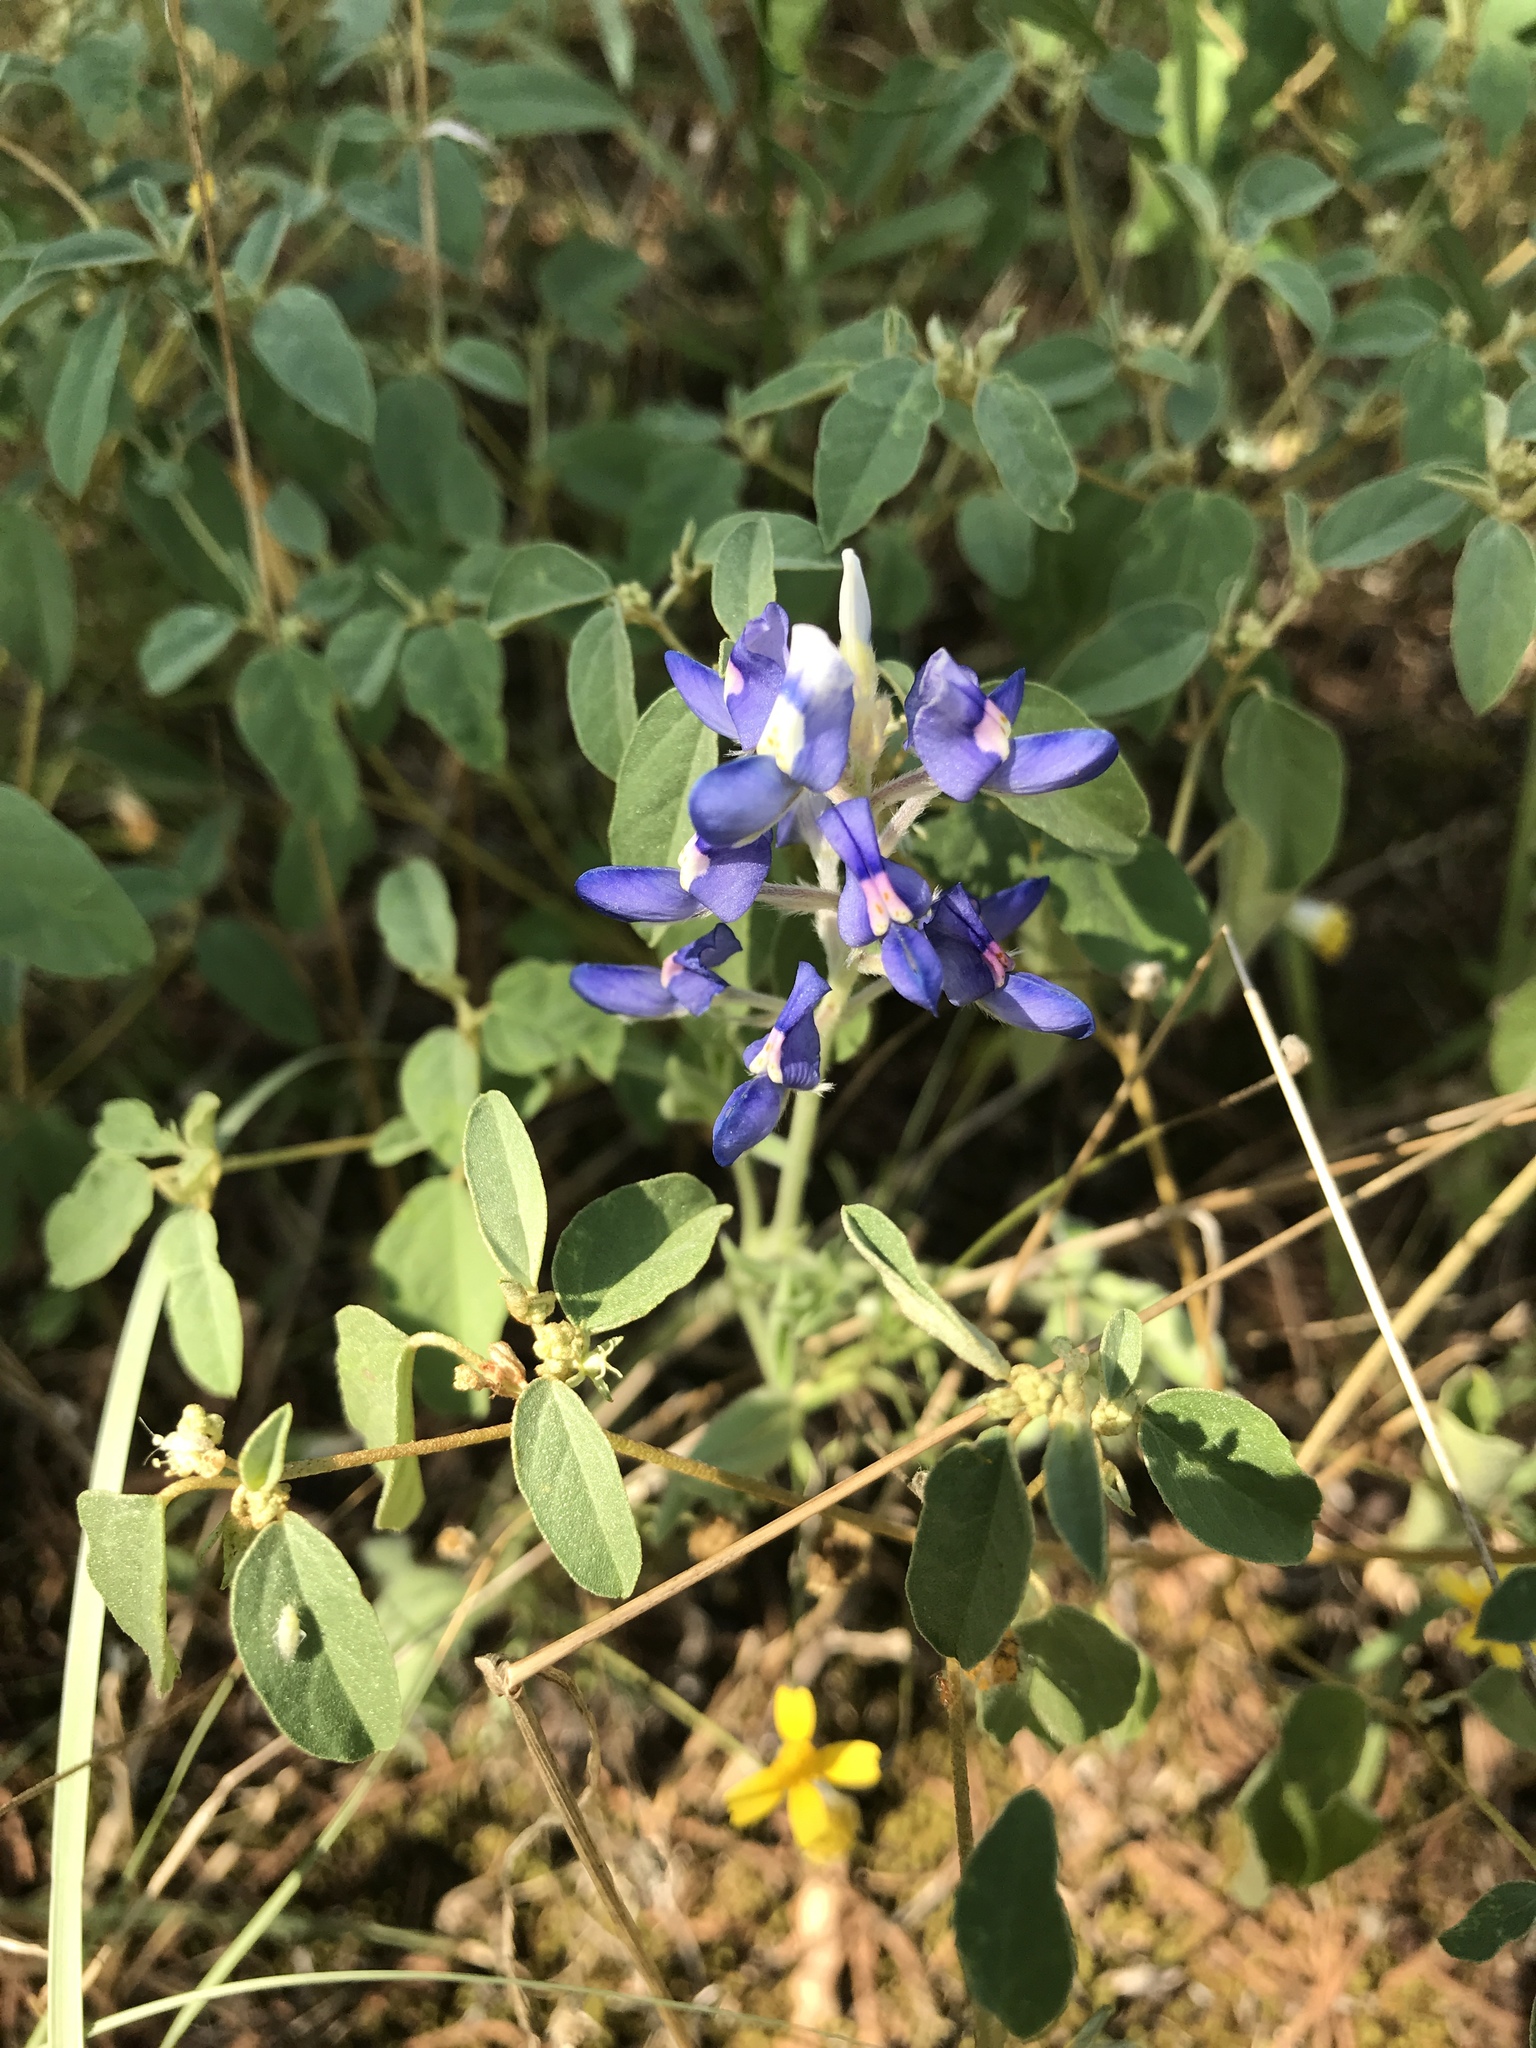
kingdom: Plantae
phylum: Tracheophyta
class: Magnoliopsida
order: Fabales
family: Fabaceae
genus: Lupinus
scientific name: Lupinus texensis
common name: Texas bluebonnet
